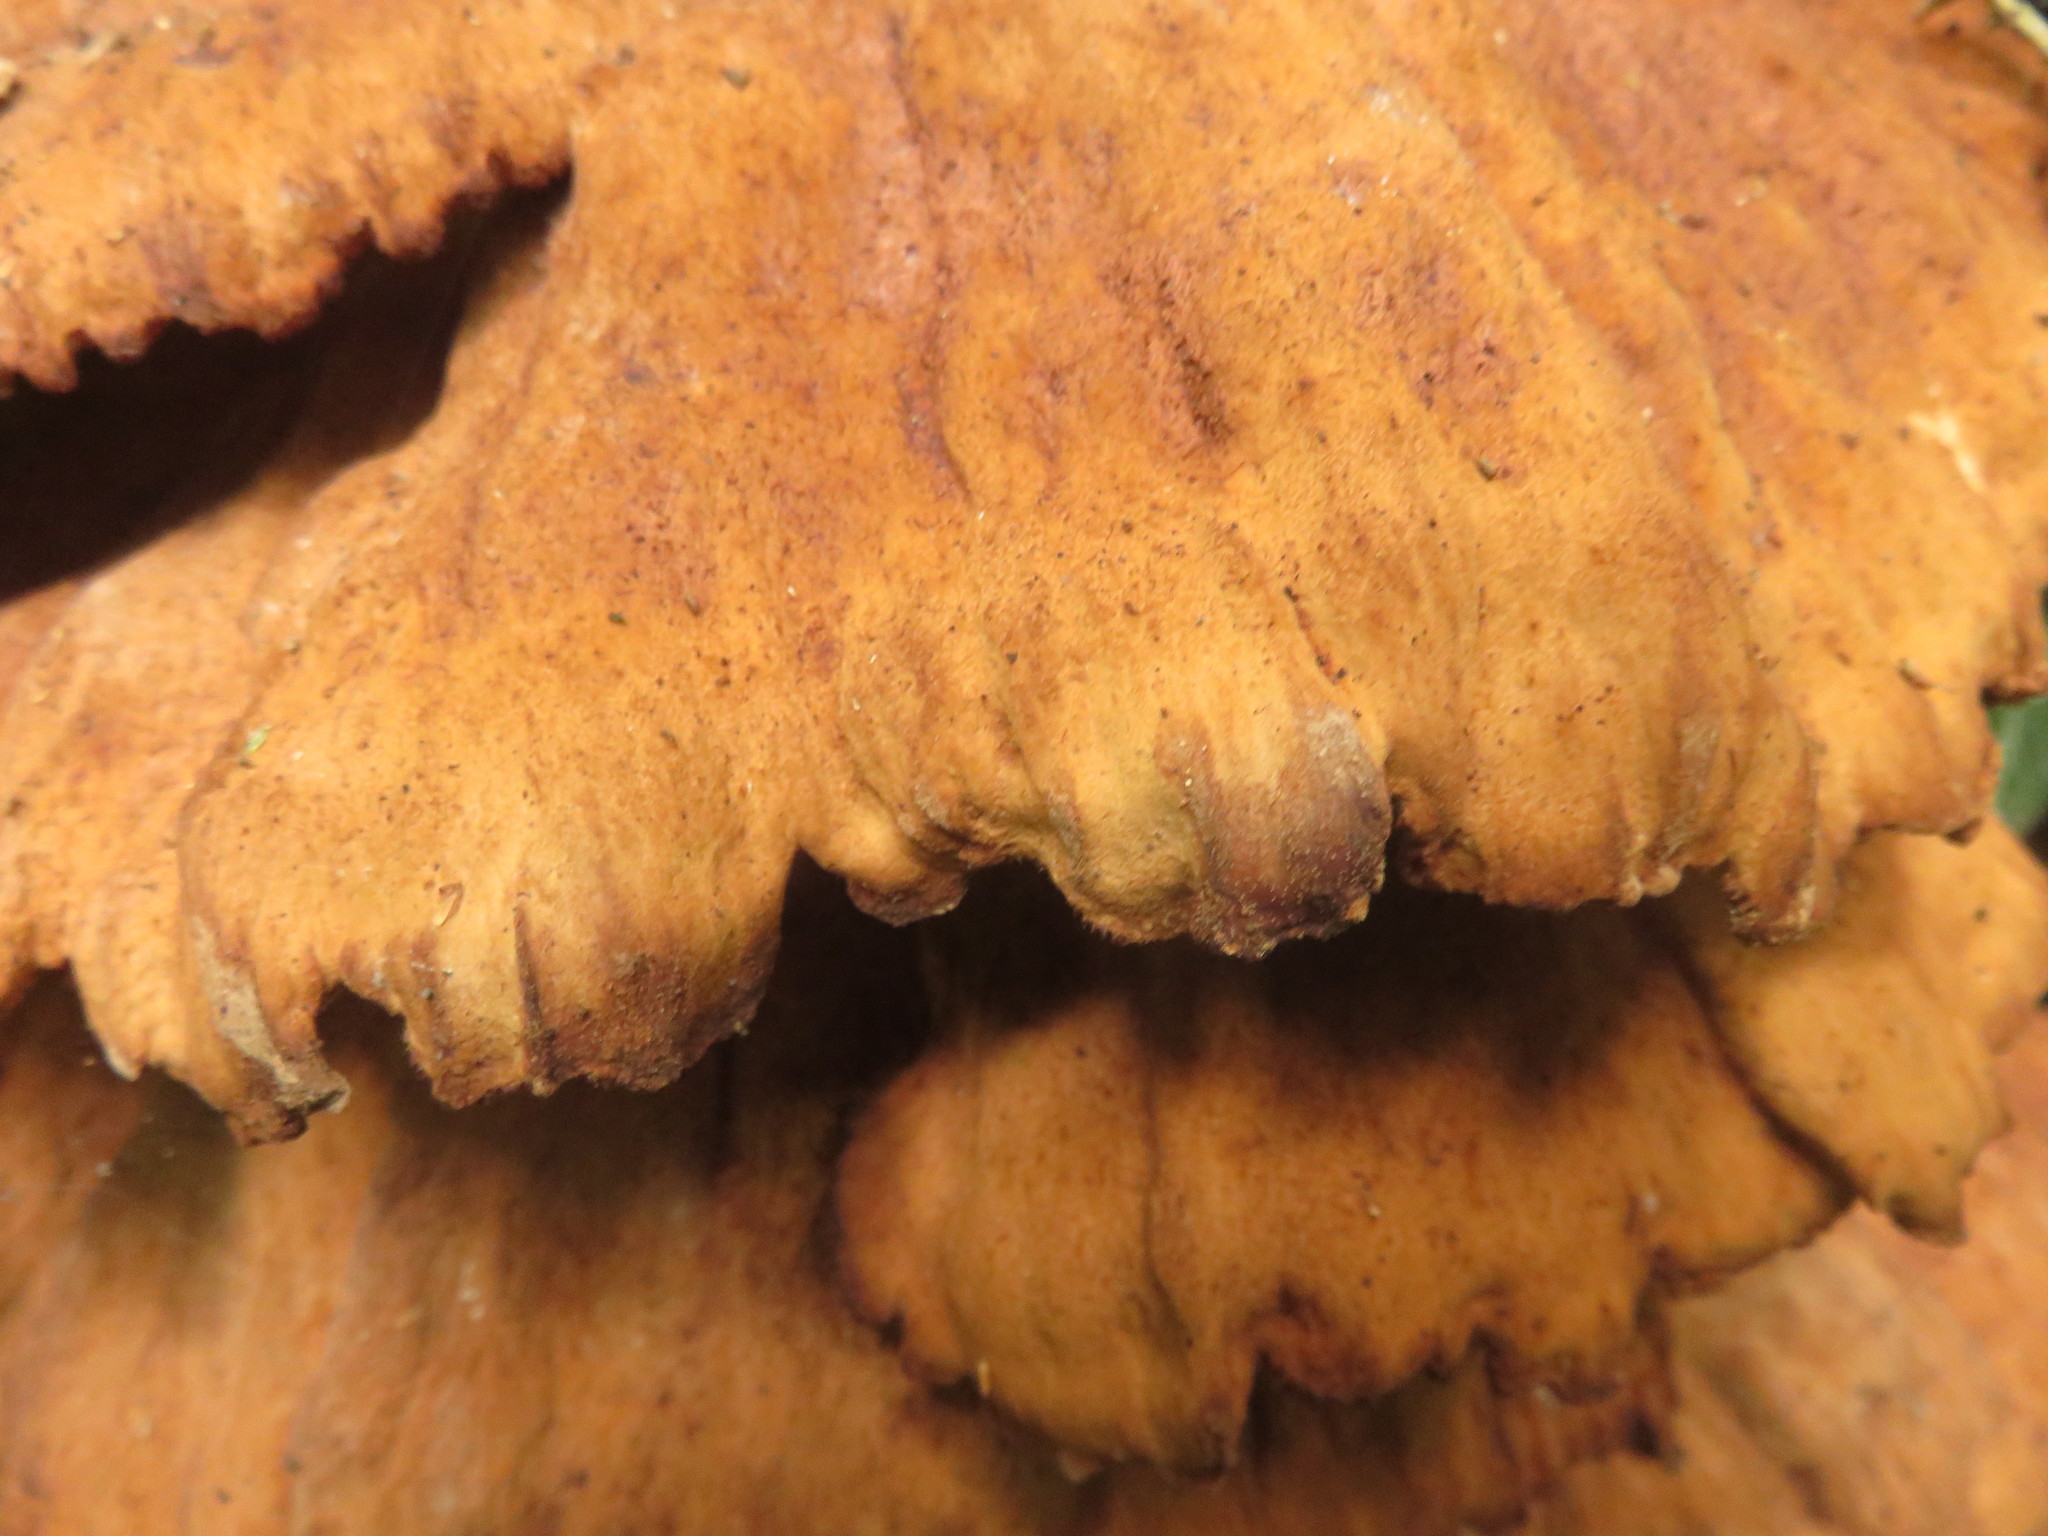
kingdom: Fungi
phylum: Basidiomycota
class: Agaricomycetes
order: Polyporales
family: Laetiporaceae
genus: Laetiporus
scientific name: Laetiporus sulphureus
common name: Chicken of the woods
